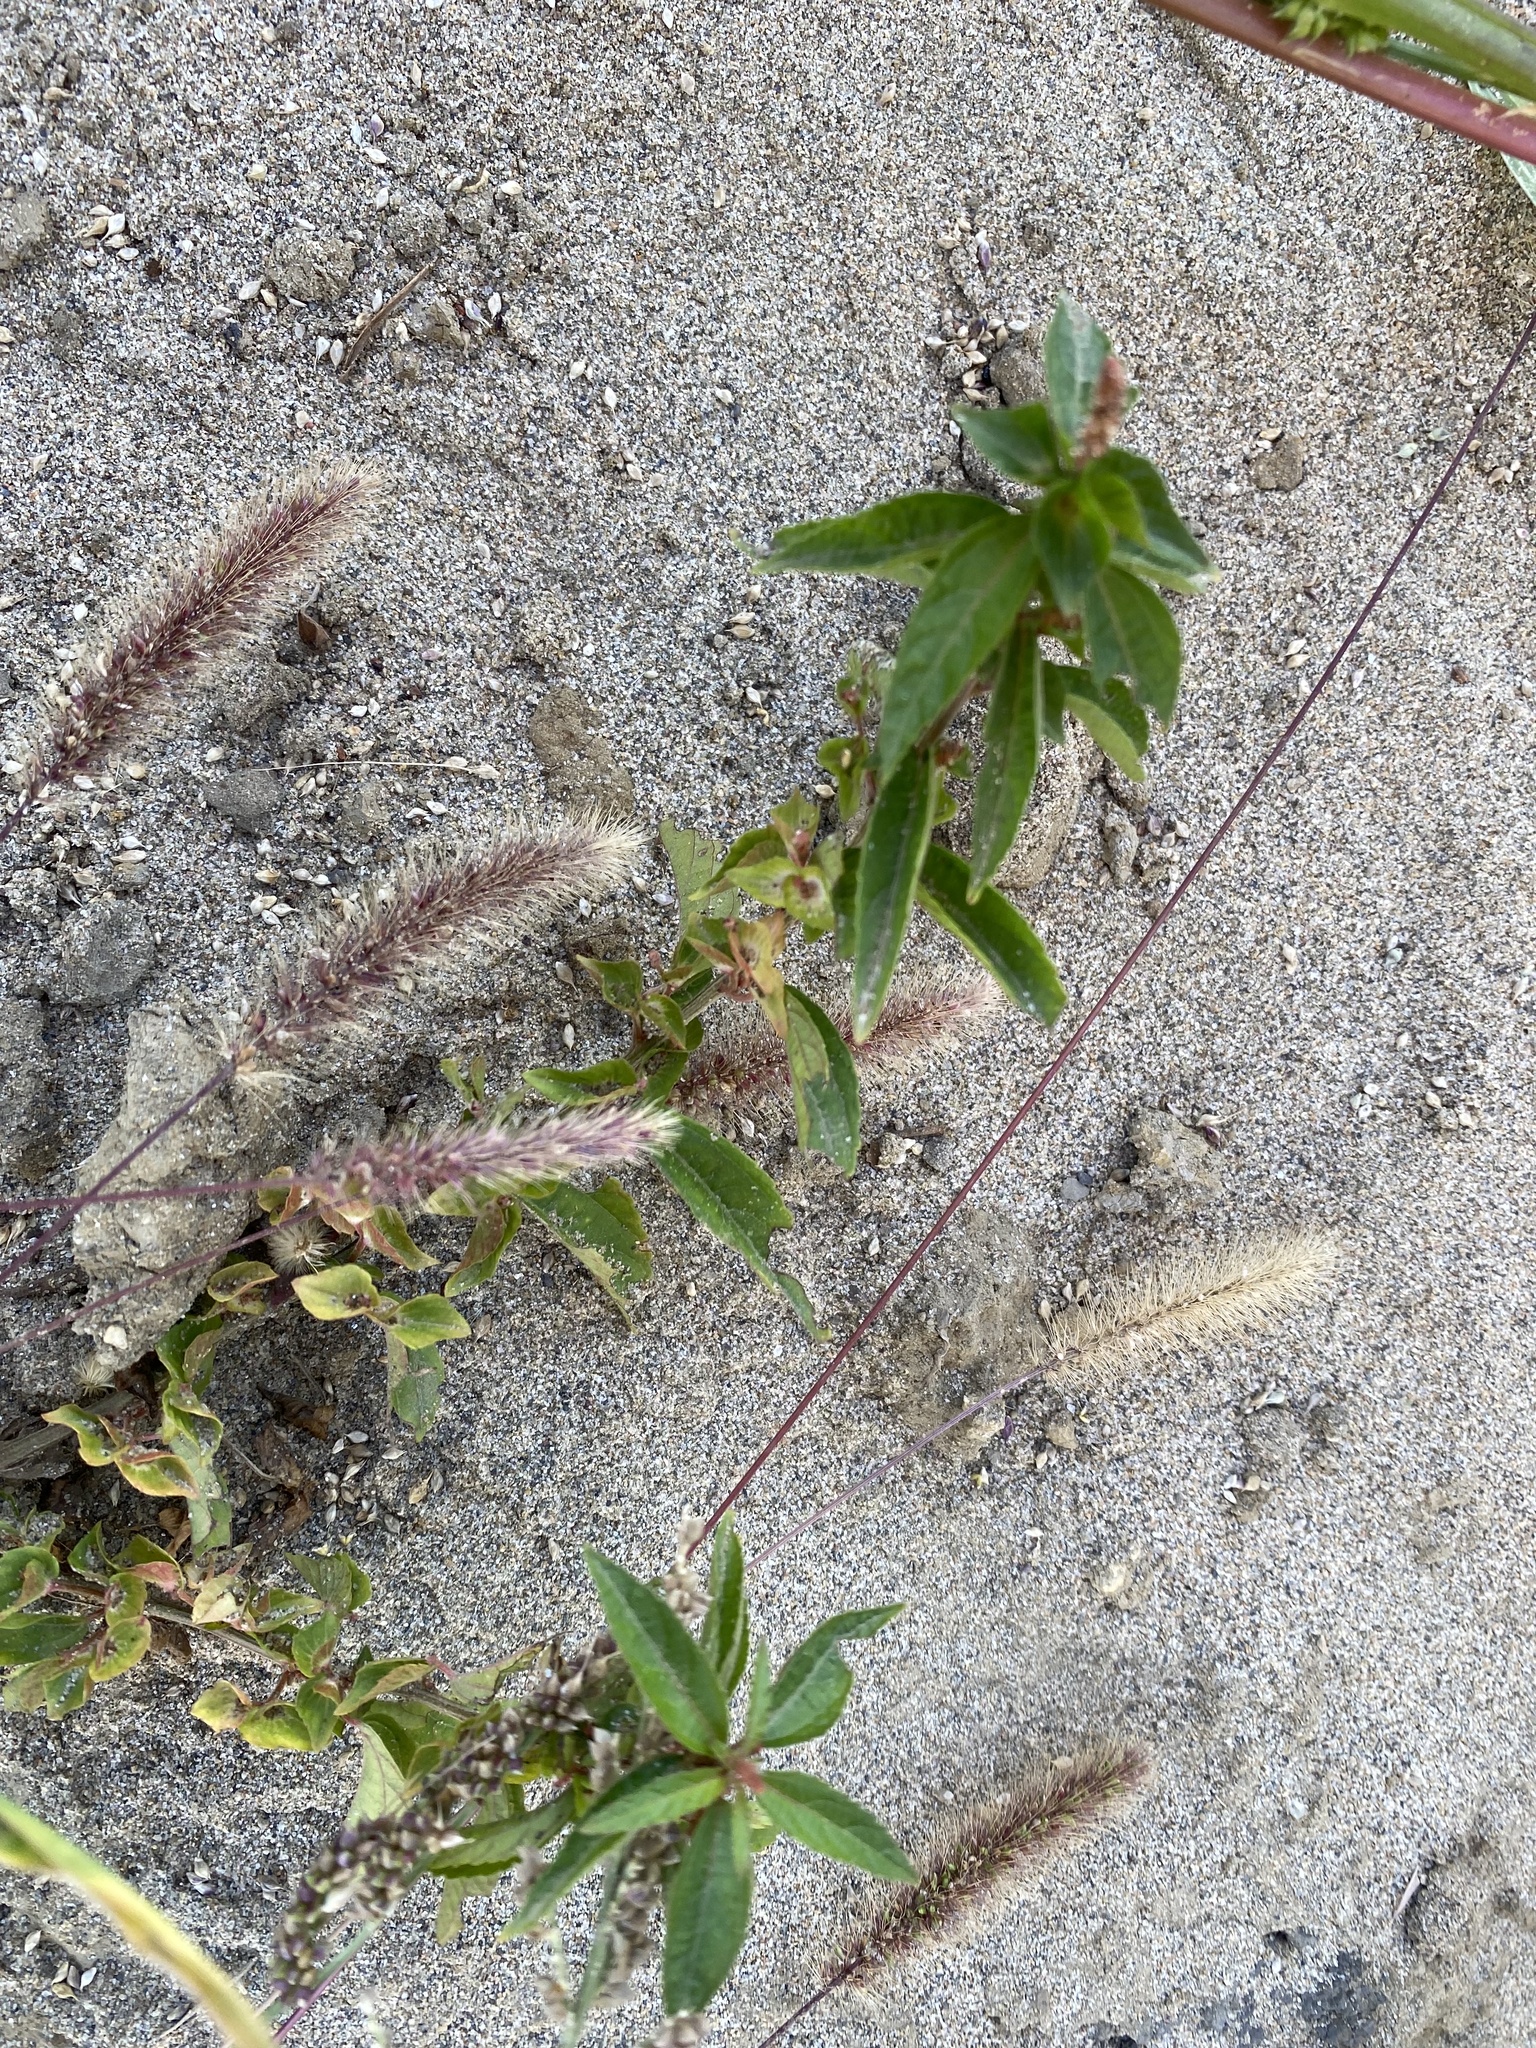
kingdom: Plantae
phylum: Tracheophyta
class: Magnoliopsida
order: Malpighiales
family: Euphorbiaceae
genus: Acalypha
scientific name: Acalypha australis
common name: Asian copperleaf
